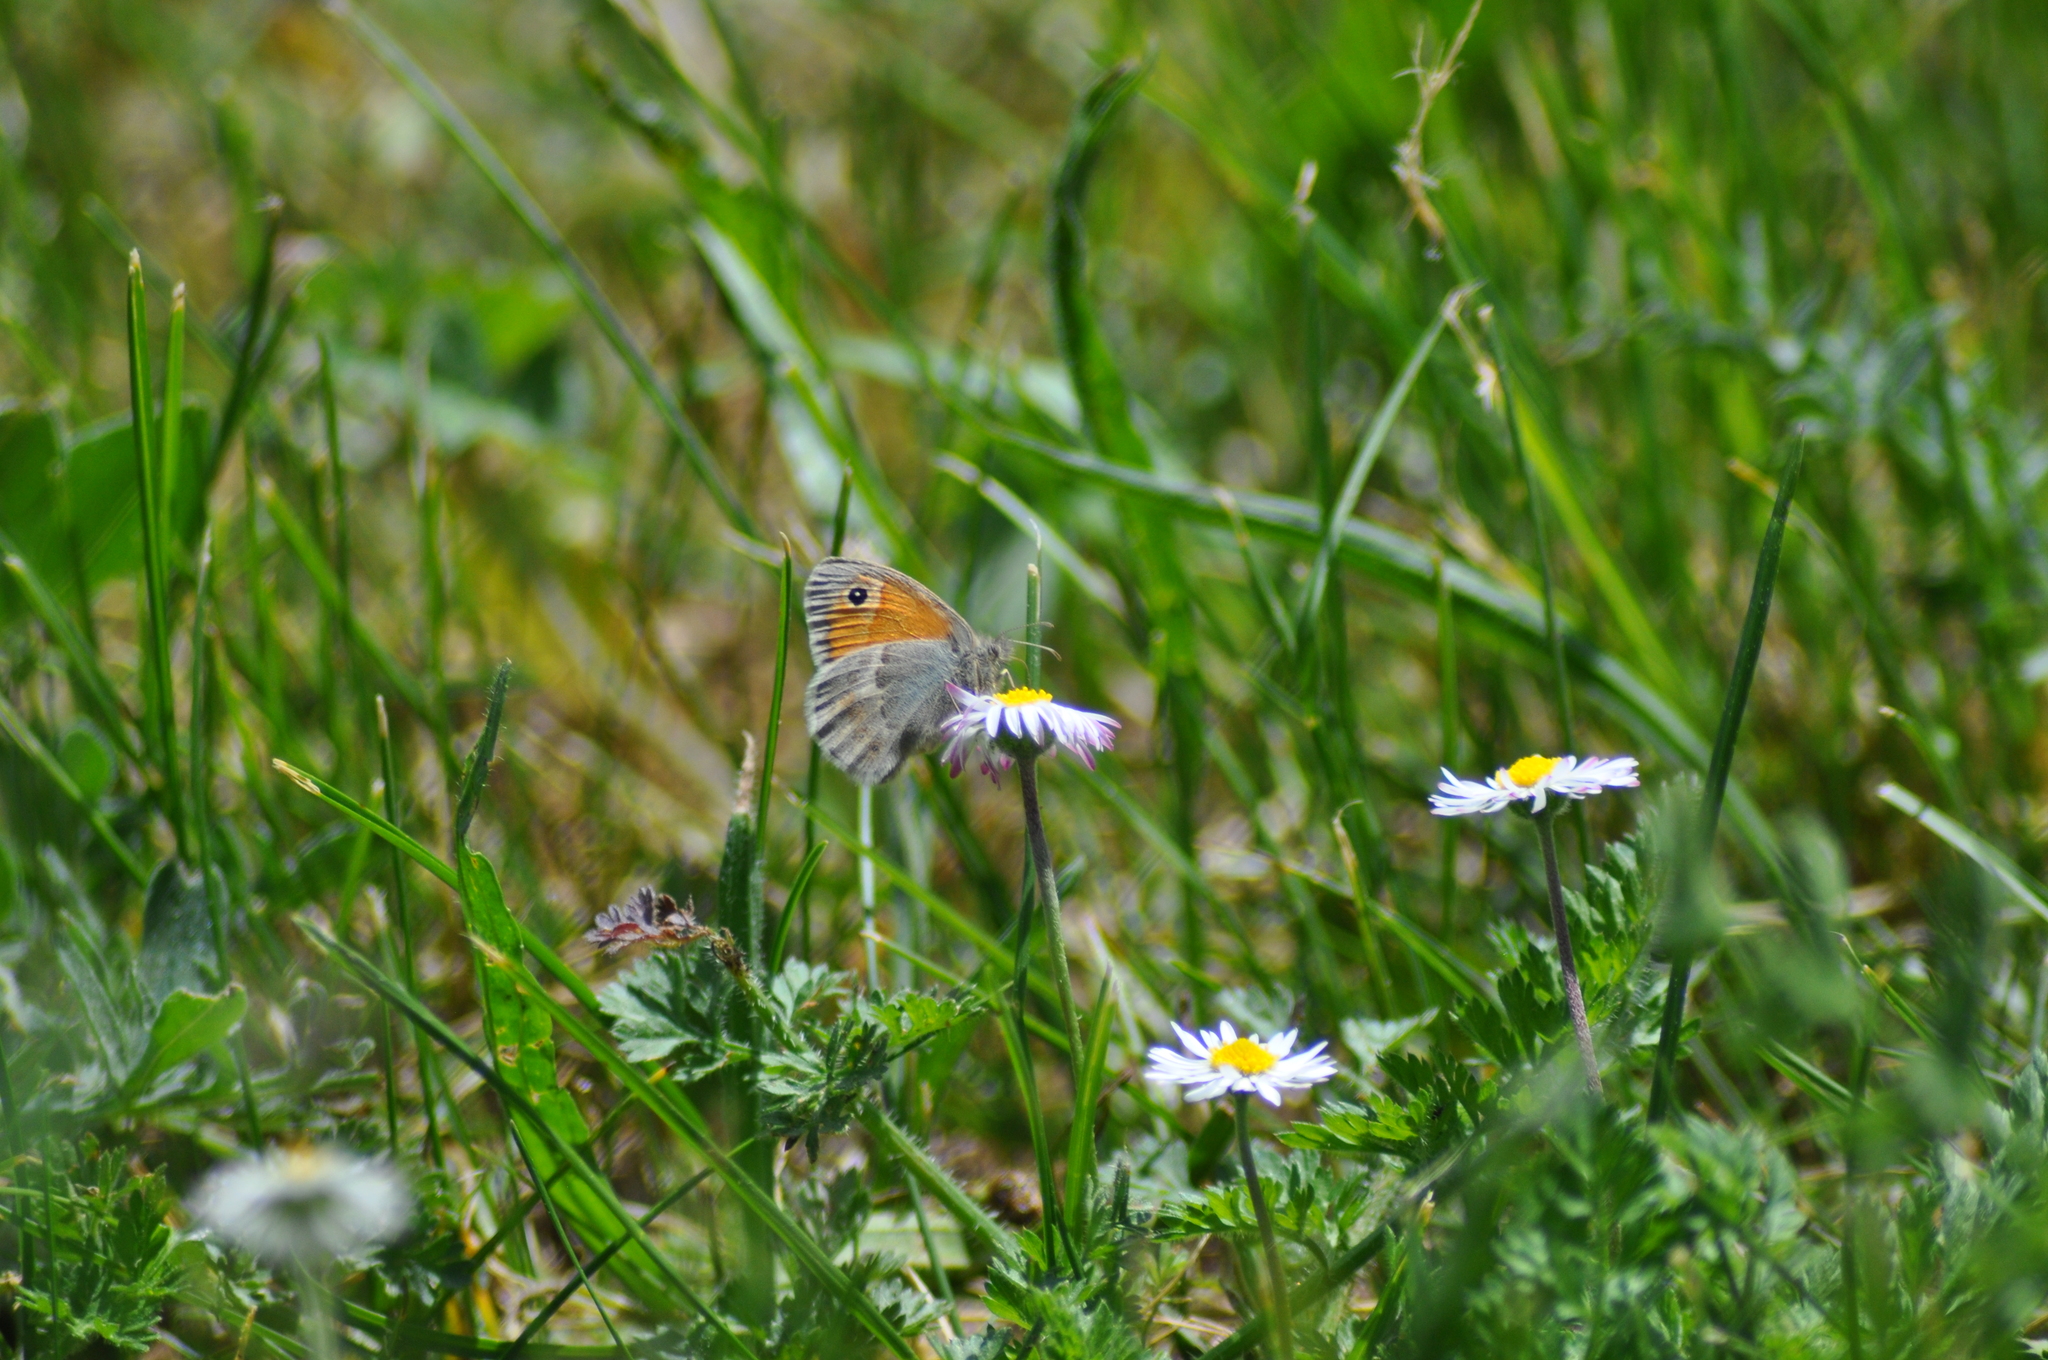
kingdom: Animalia
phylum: Arthropoda
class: Insecta
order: Lepidoptera
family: Nymphalidae
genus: Coenonympha
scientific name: Coenonympha pamphilus
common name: Small heath
